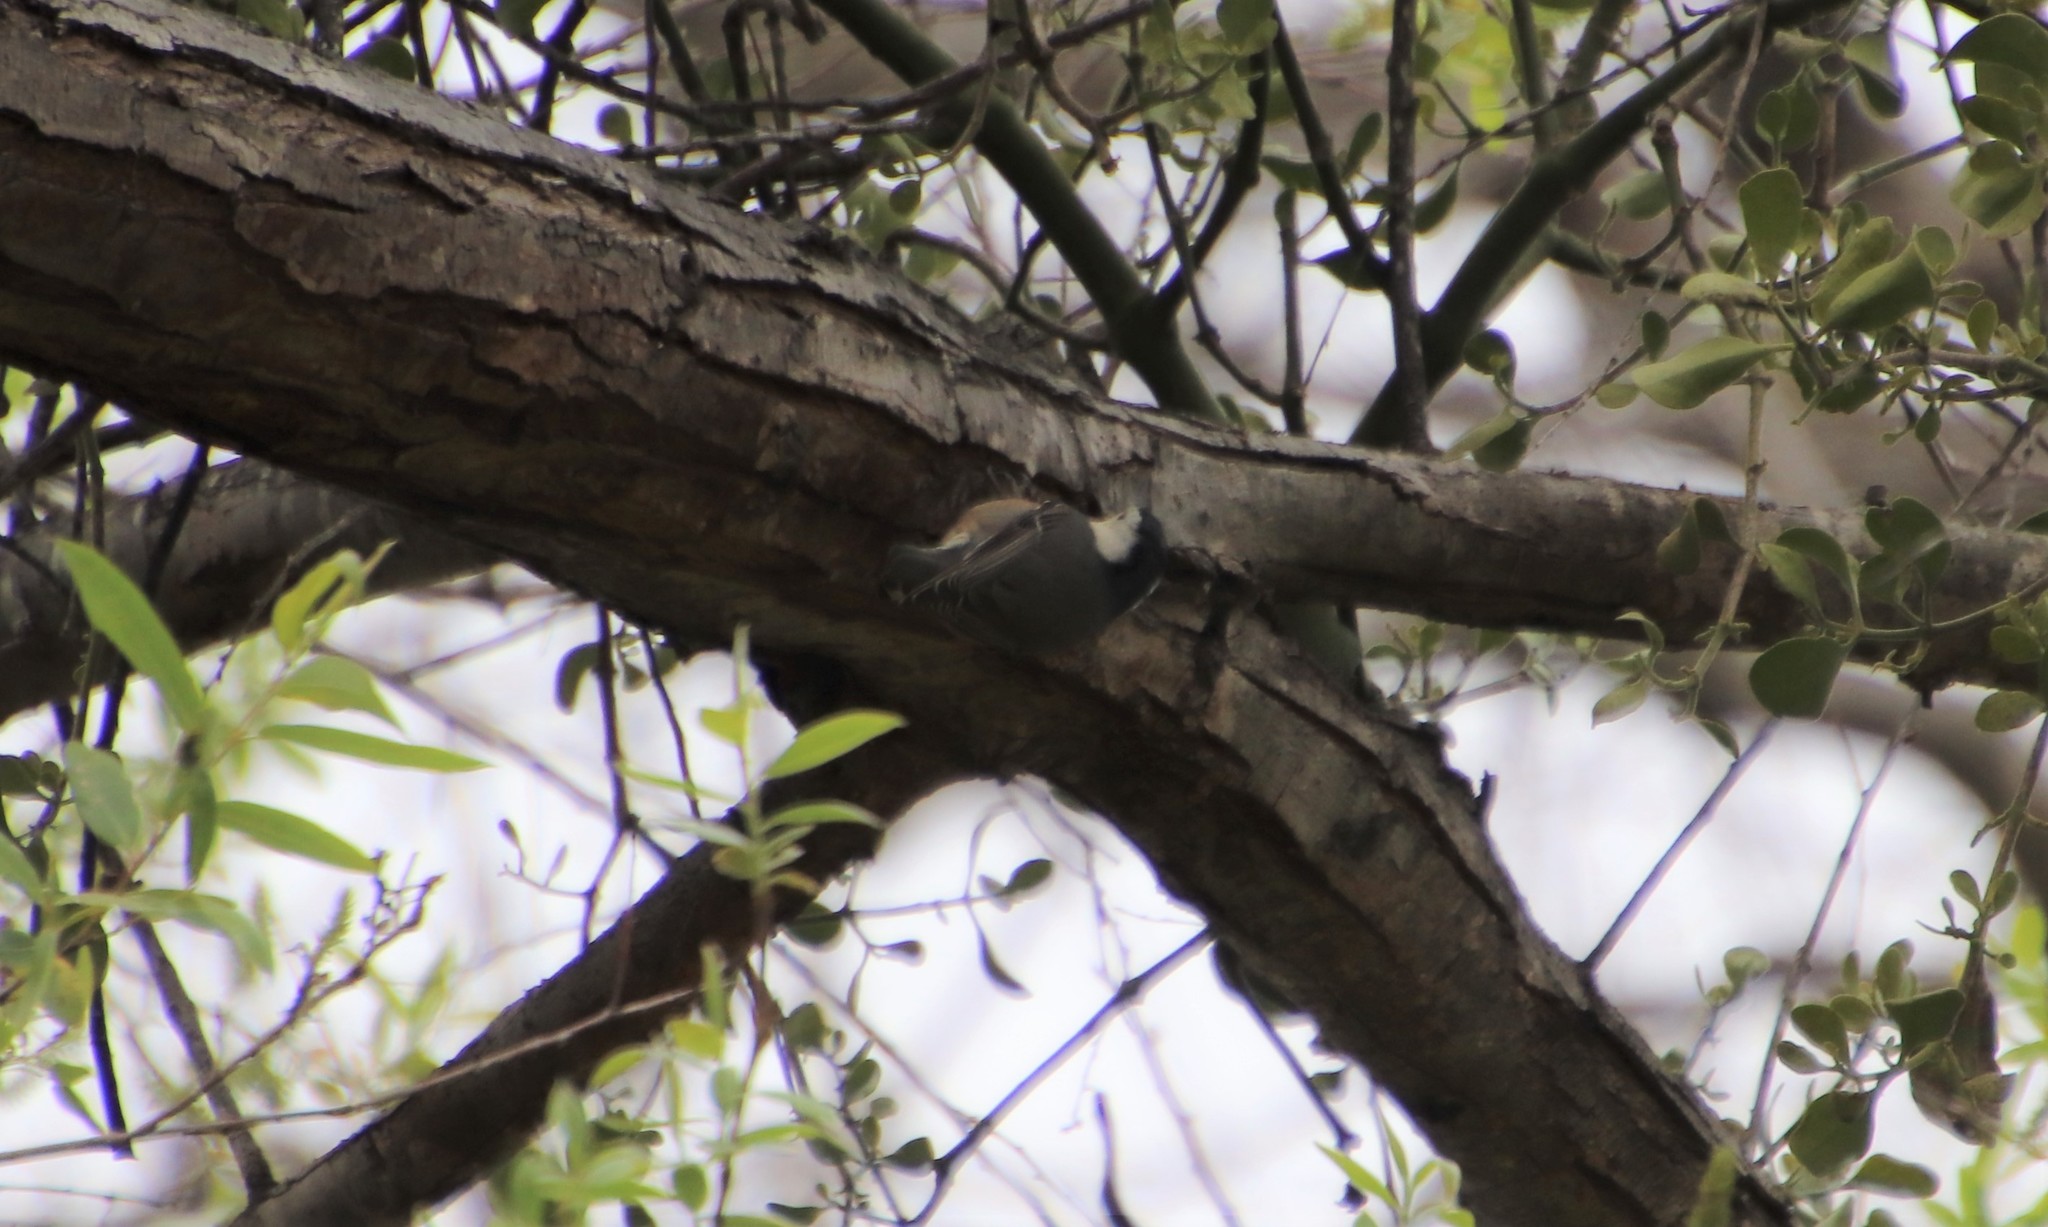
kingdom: Animalia
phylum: Chordata
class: Aves
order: Passeriformes
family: Sittidae
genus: Sitta
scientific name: Sitta carolinensis
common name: White-breasted nuthatch
